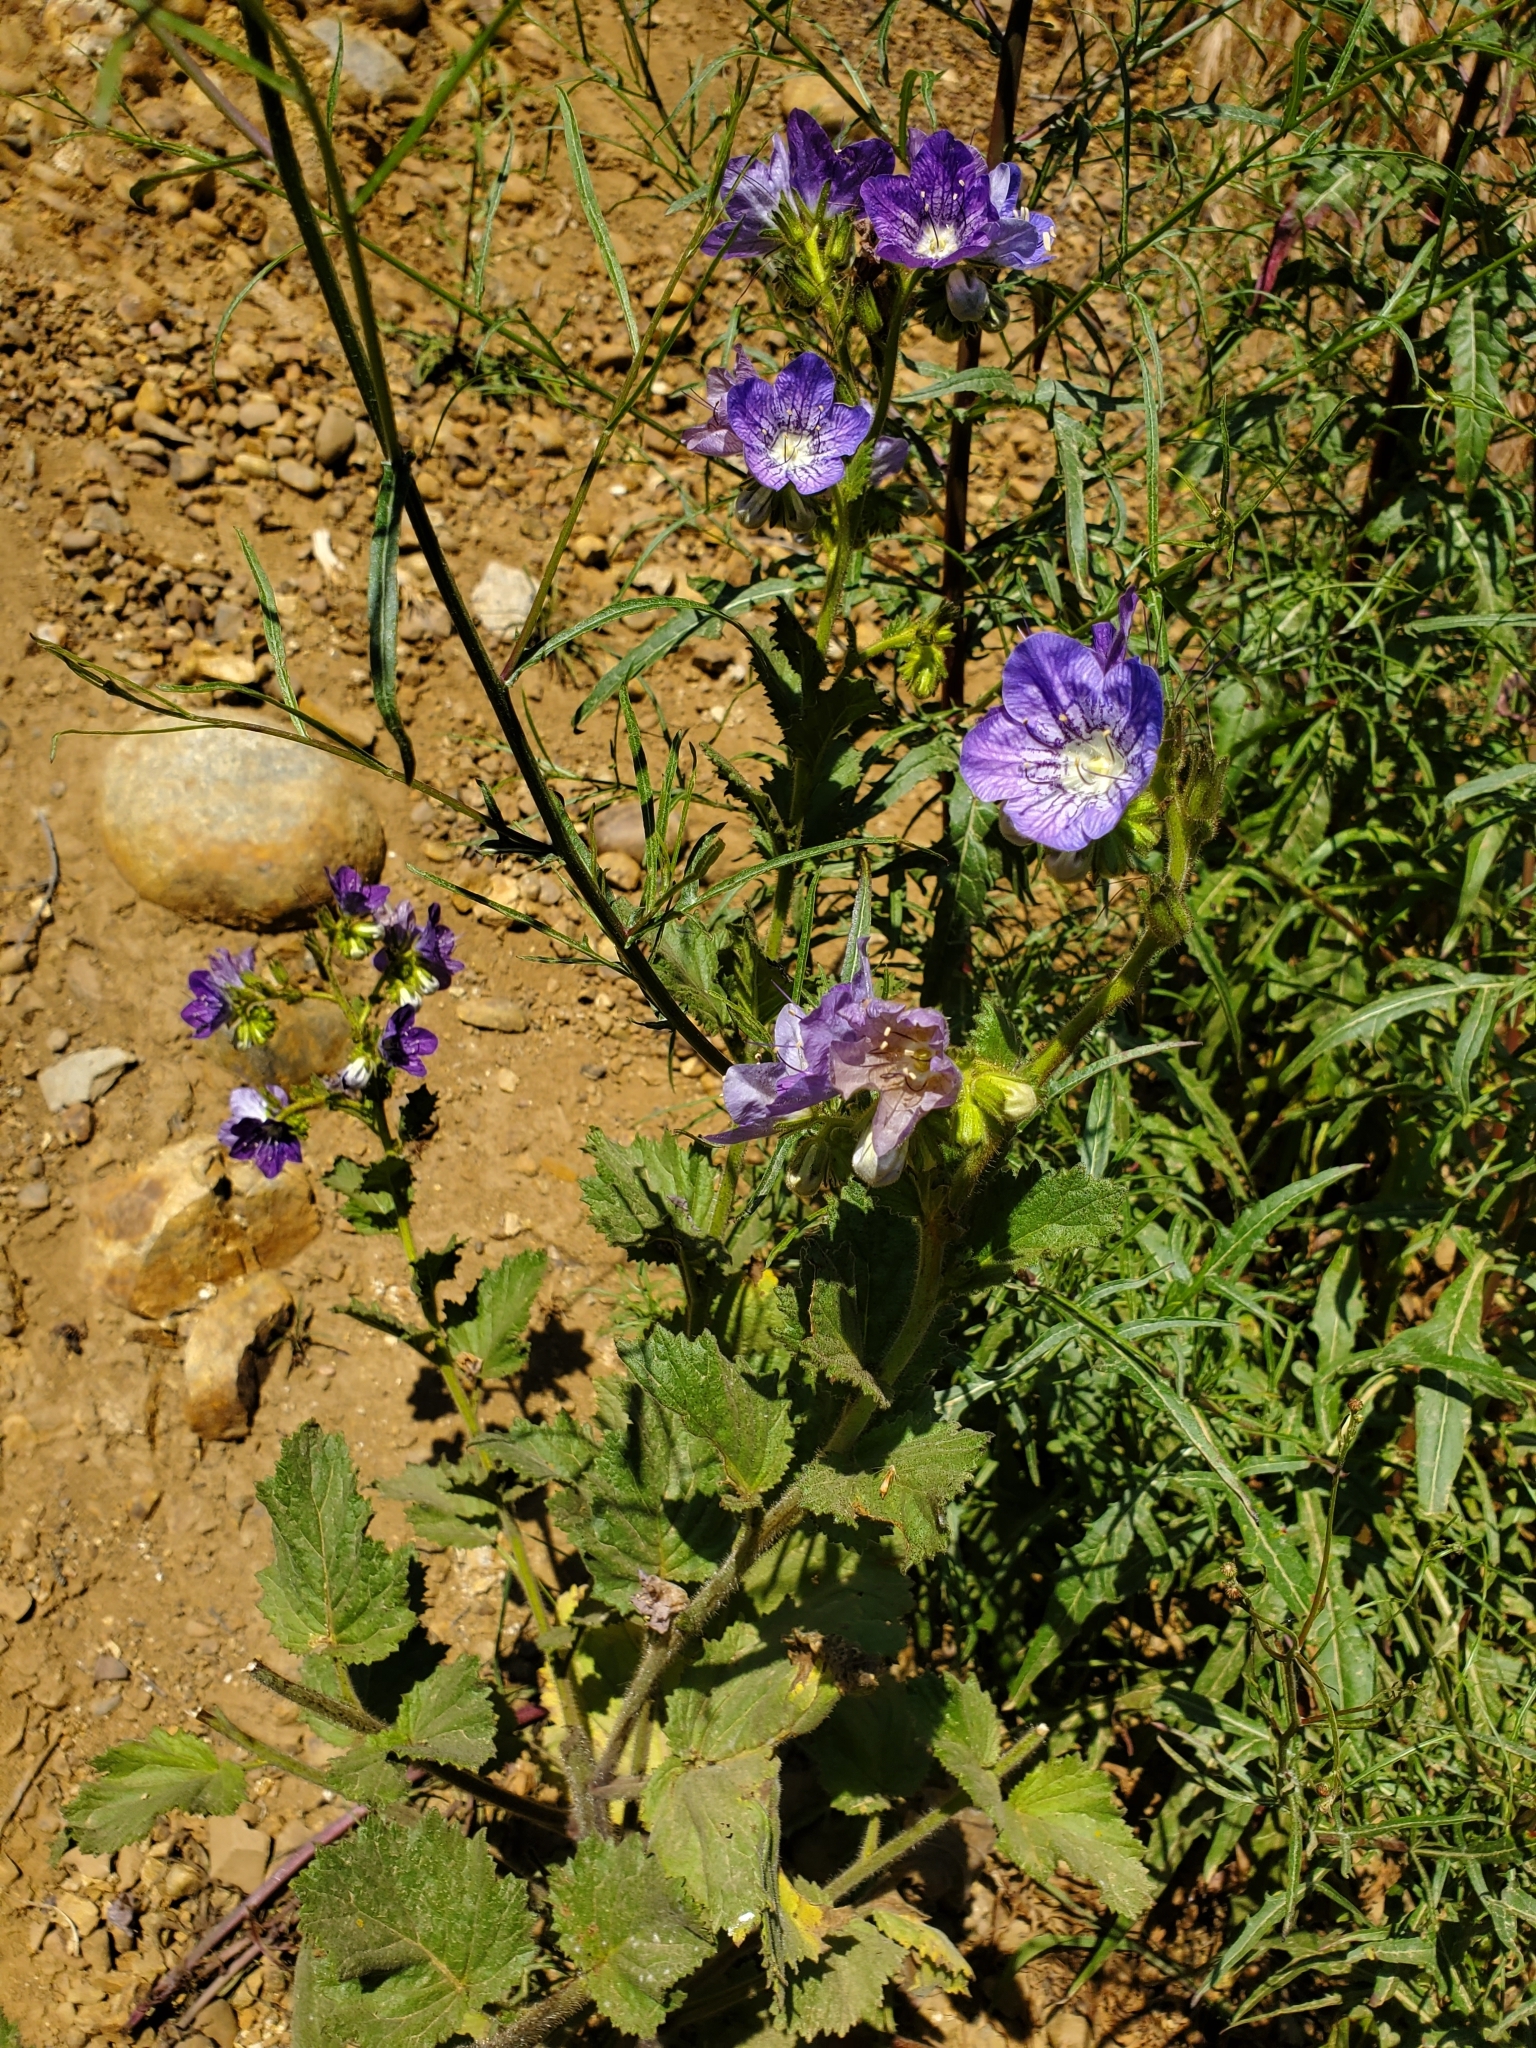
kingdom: Plantae
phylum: Tracheophyta
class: Magnoliopsida
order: Boraginales
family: Hydrophyllaceae
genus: Phacelia
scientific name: Phacelia grandiflora
